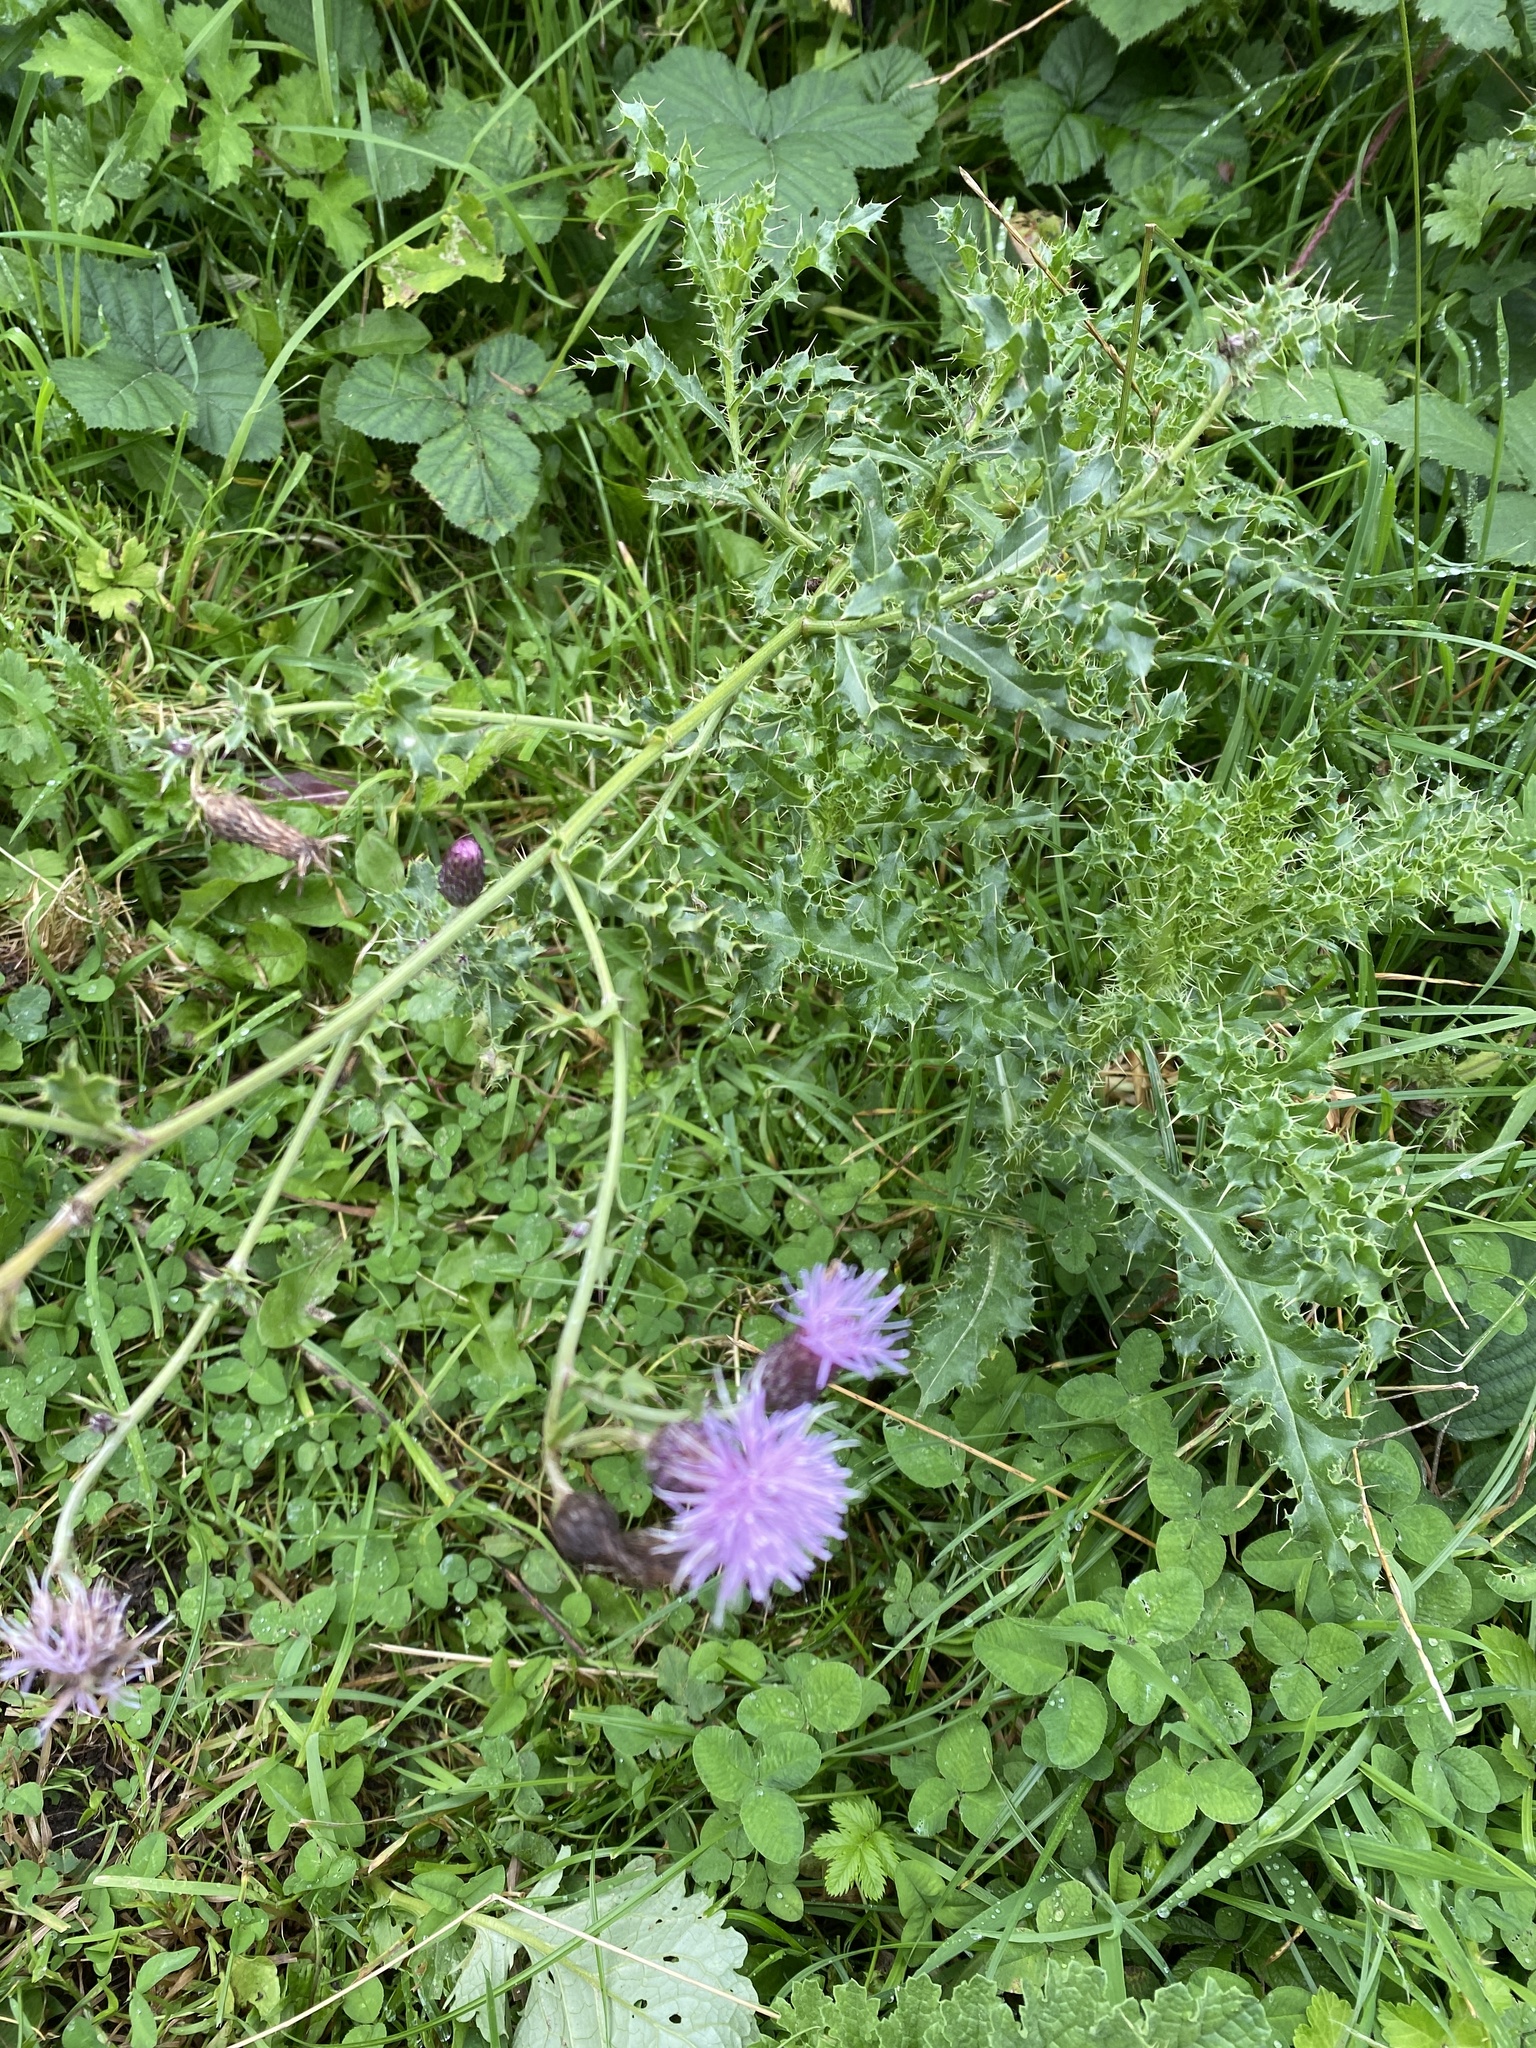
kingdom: Plantae
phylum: Tracheophyta
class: Magnoliopsida
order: Asterales
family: Asteraceae
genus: Cirsium
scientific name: Cirsium arvense
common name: Creeping thistle
